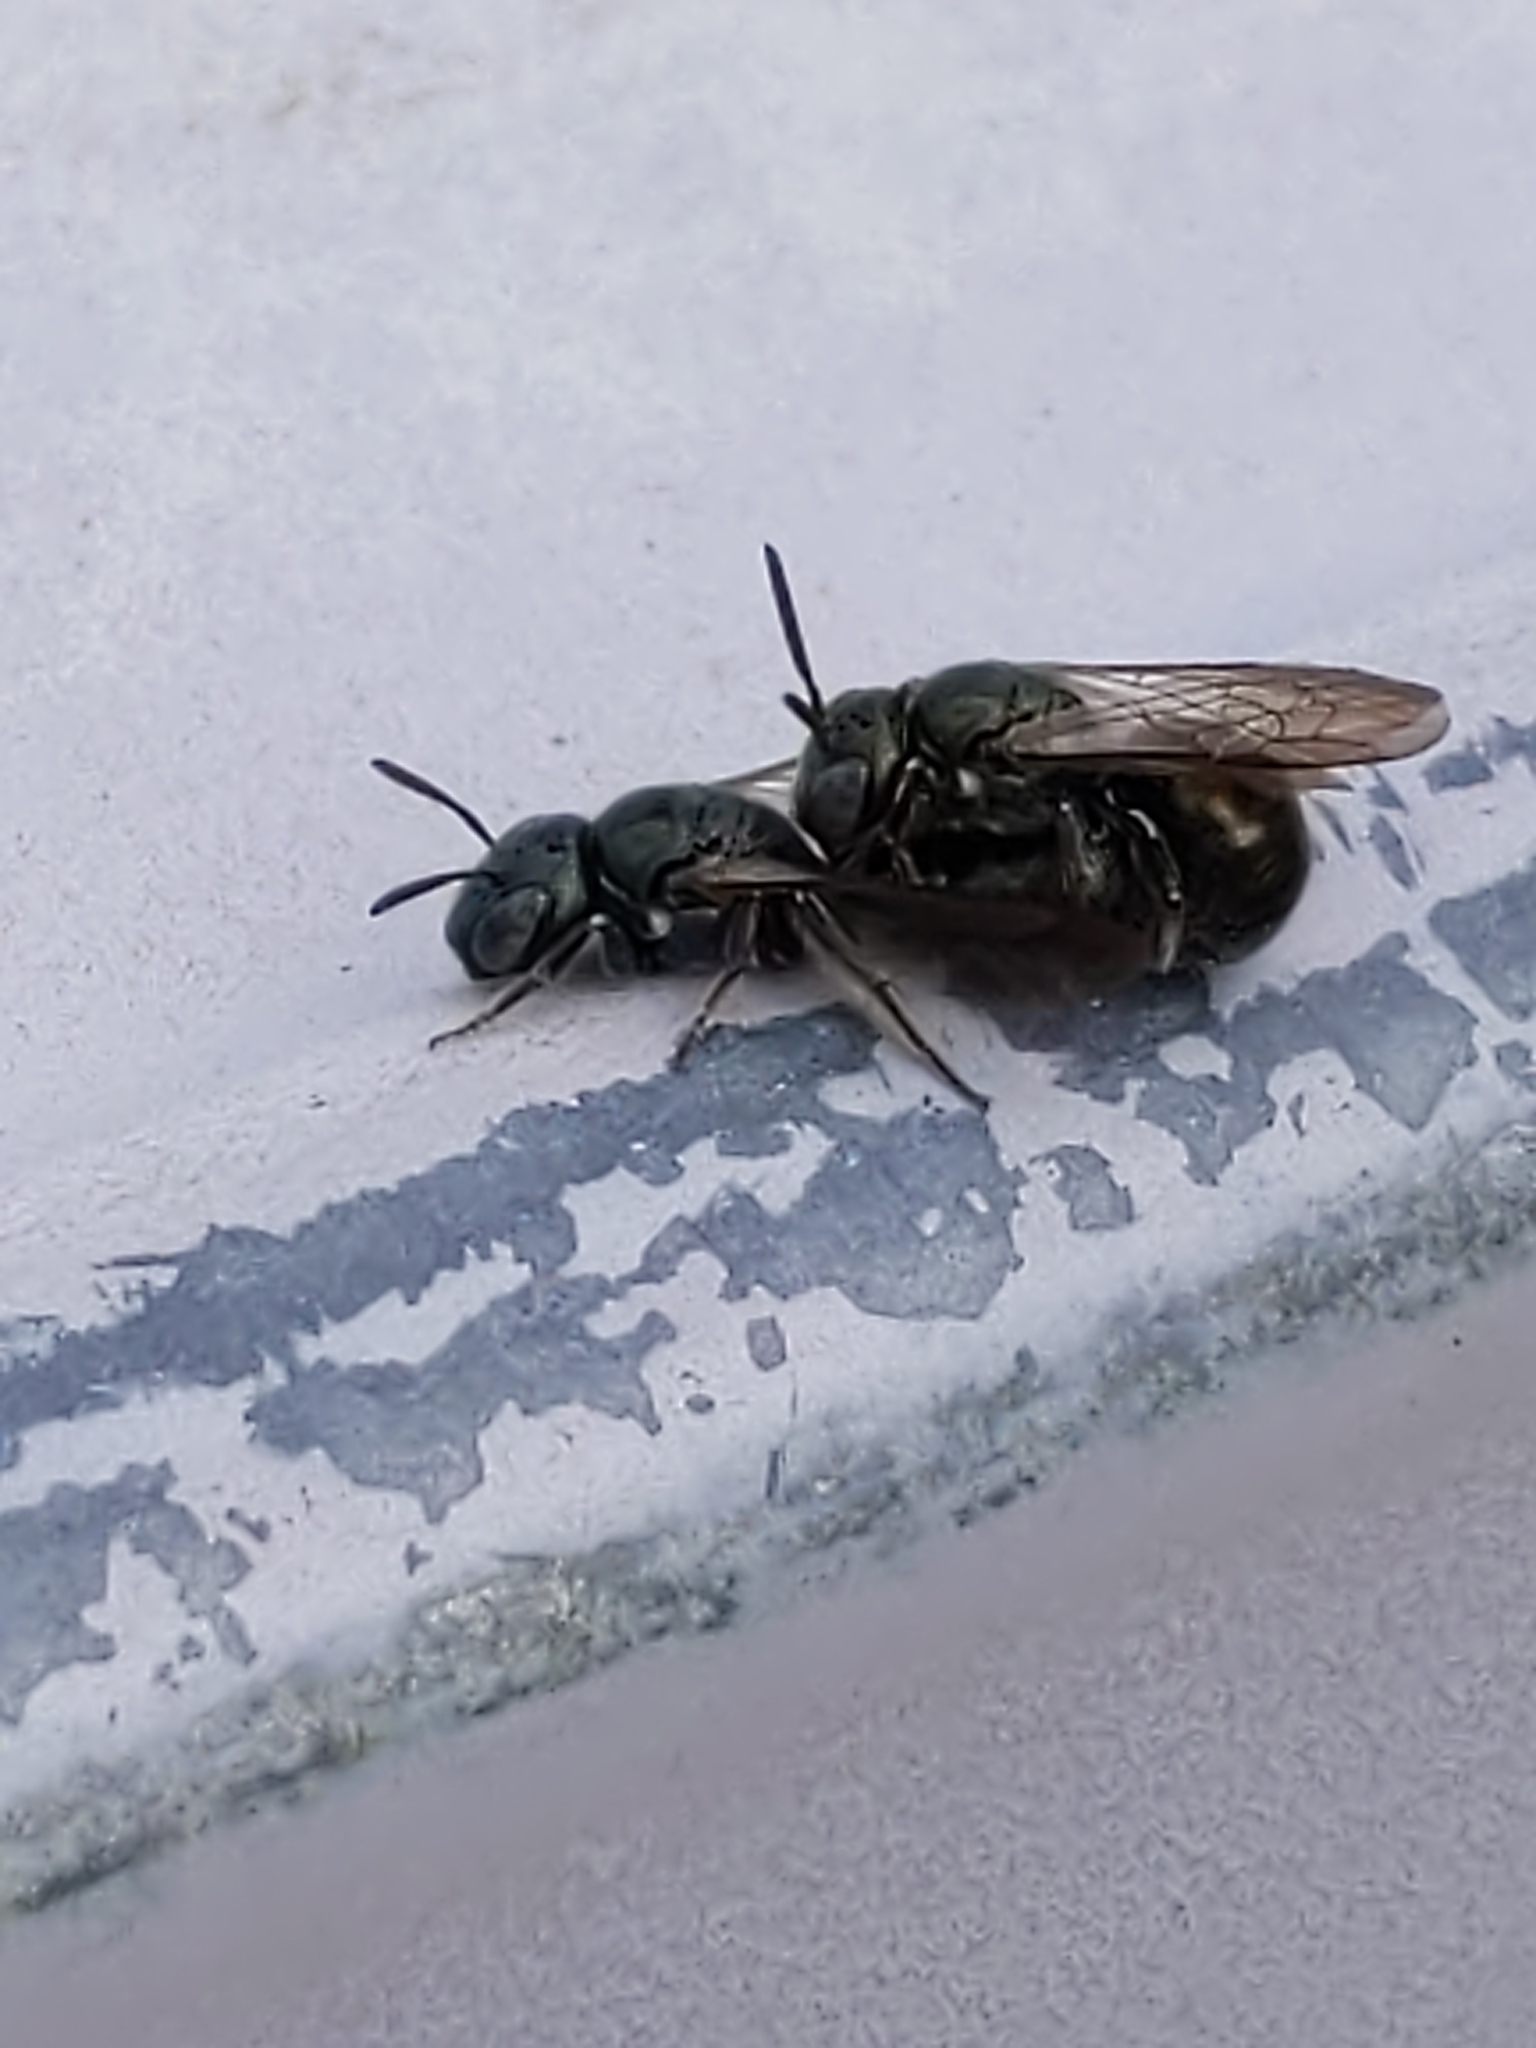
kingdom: Animalia
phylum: Arthropoda
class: Insecta
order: Hymenoptera
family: Apidae
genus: Zadontomerus
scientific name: Zadontomerus
